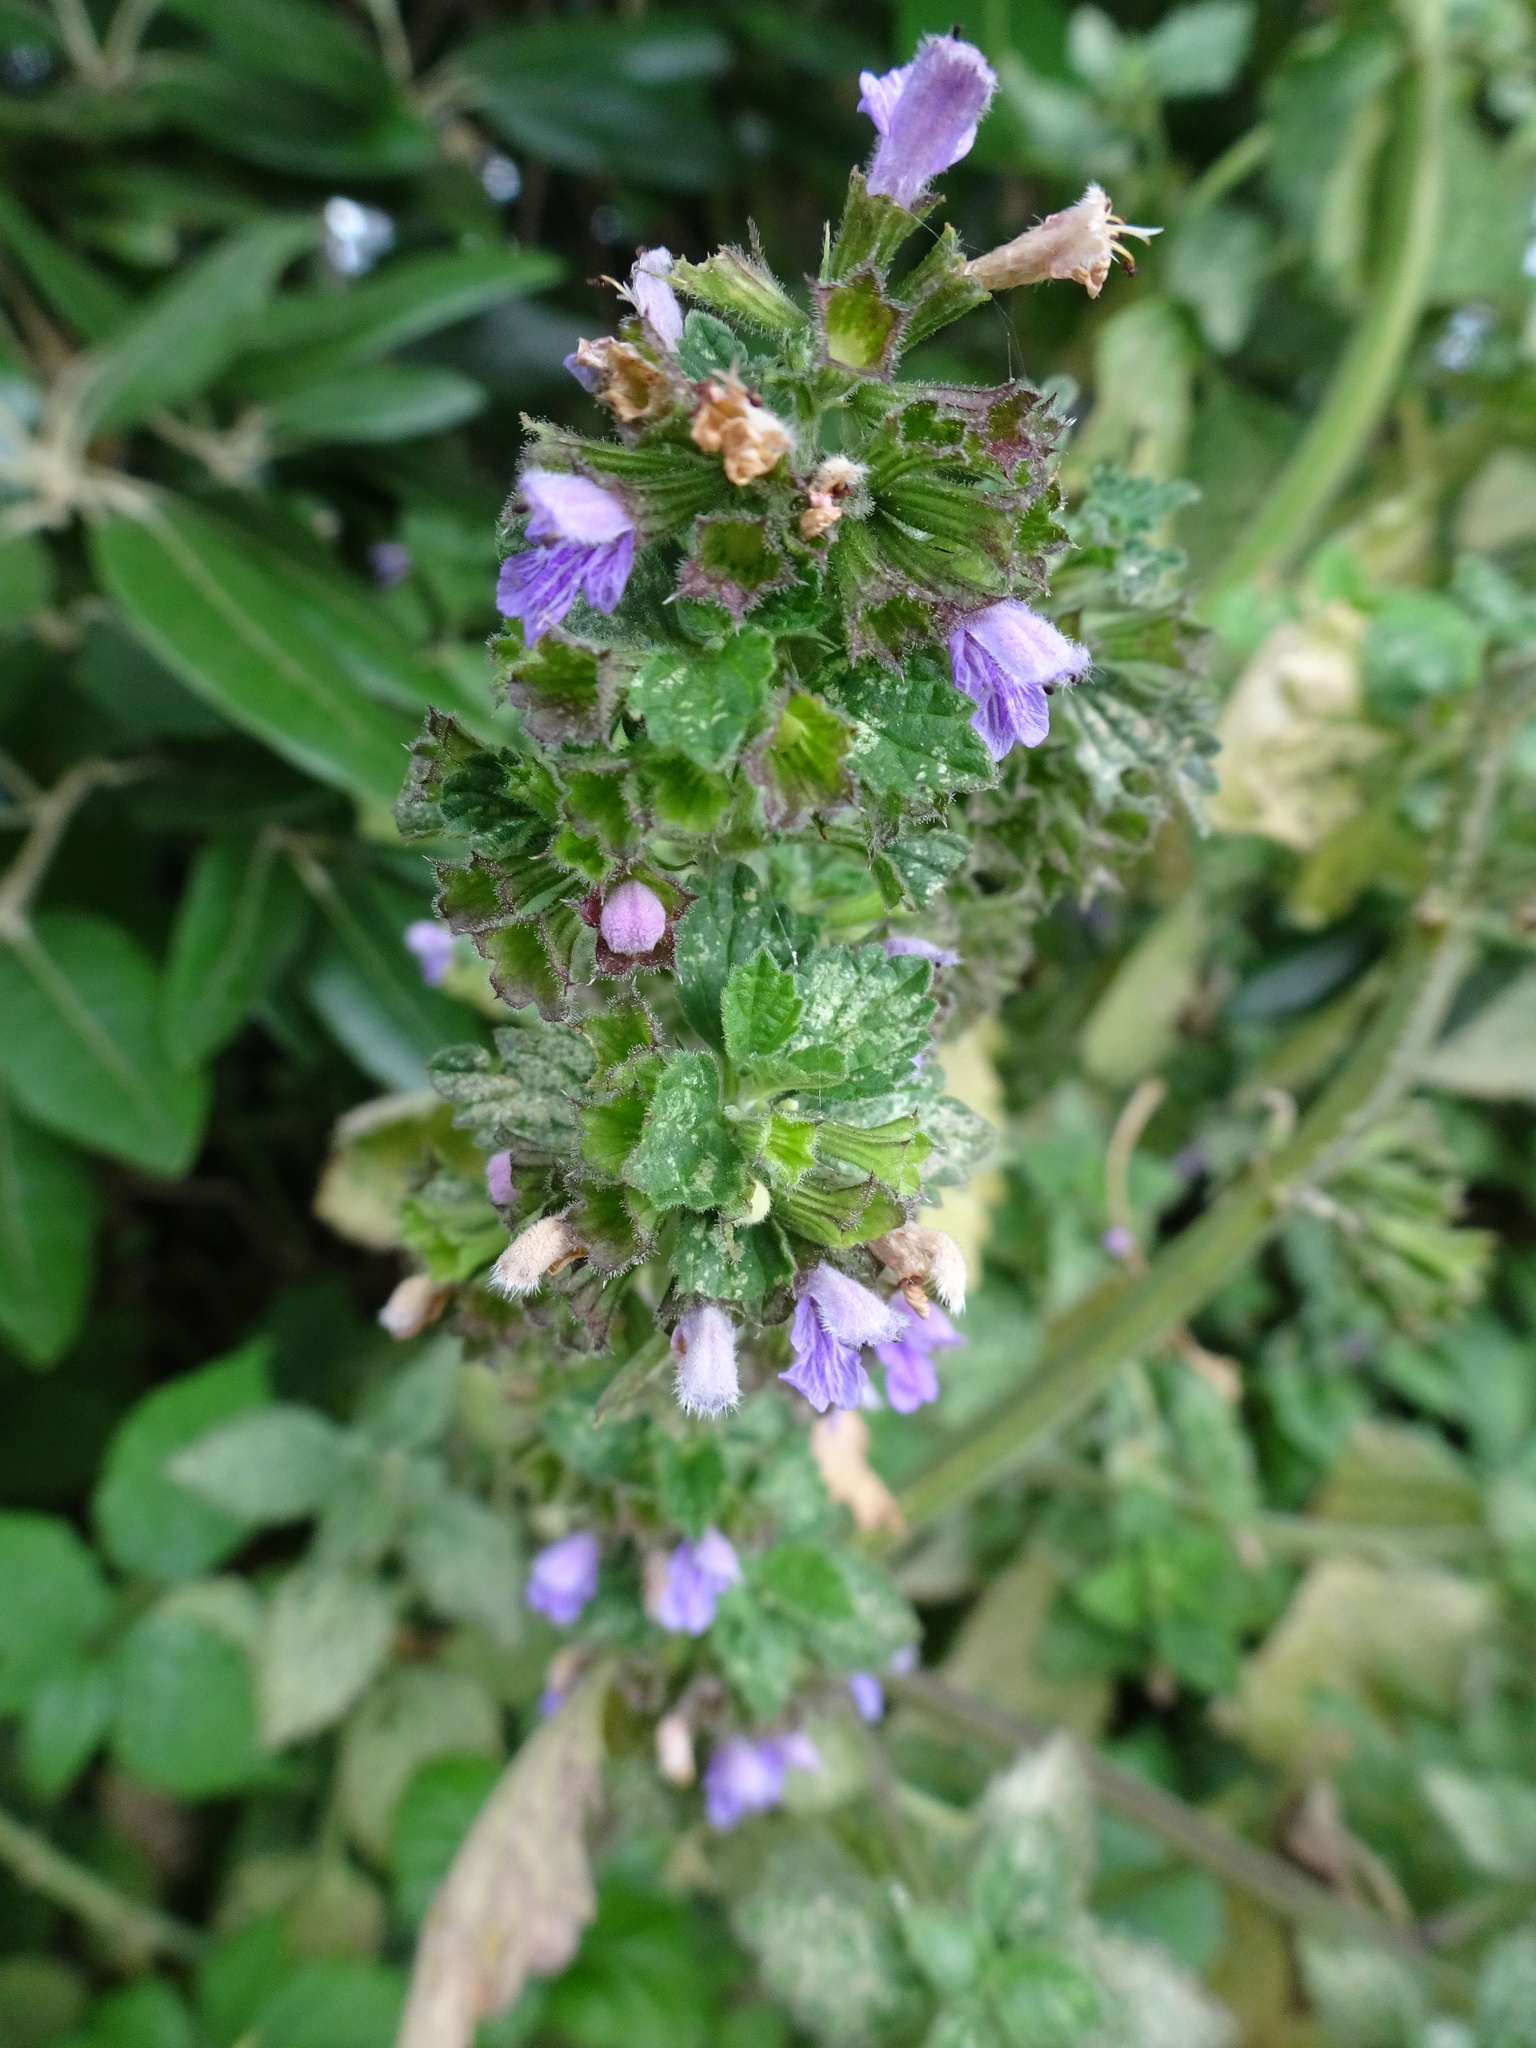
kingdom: Plantae
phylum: Tracheophyta
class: Magnoliopsida
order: Lamiales
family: Lamiaceae
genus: Ballota
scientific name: Ballota nigra
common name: Black horehound
